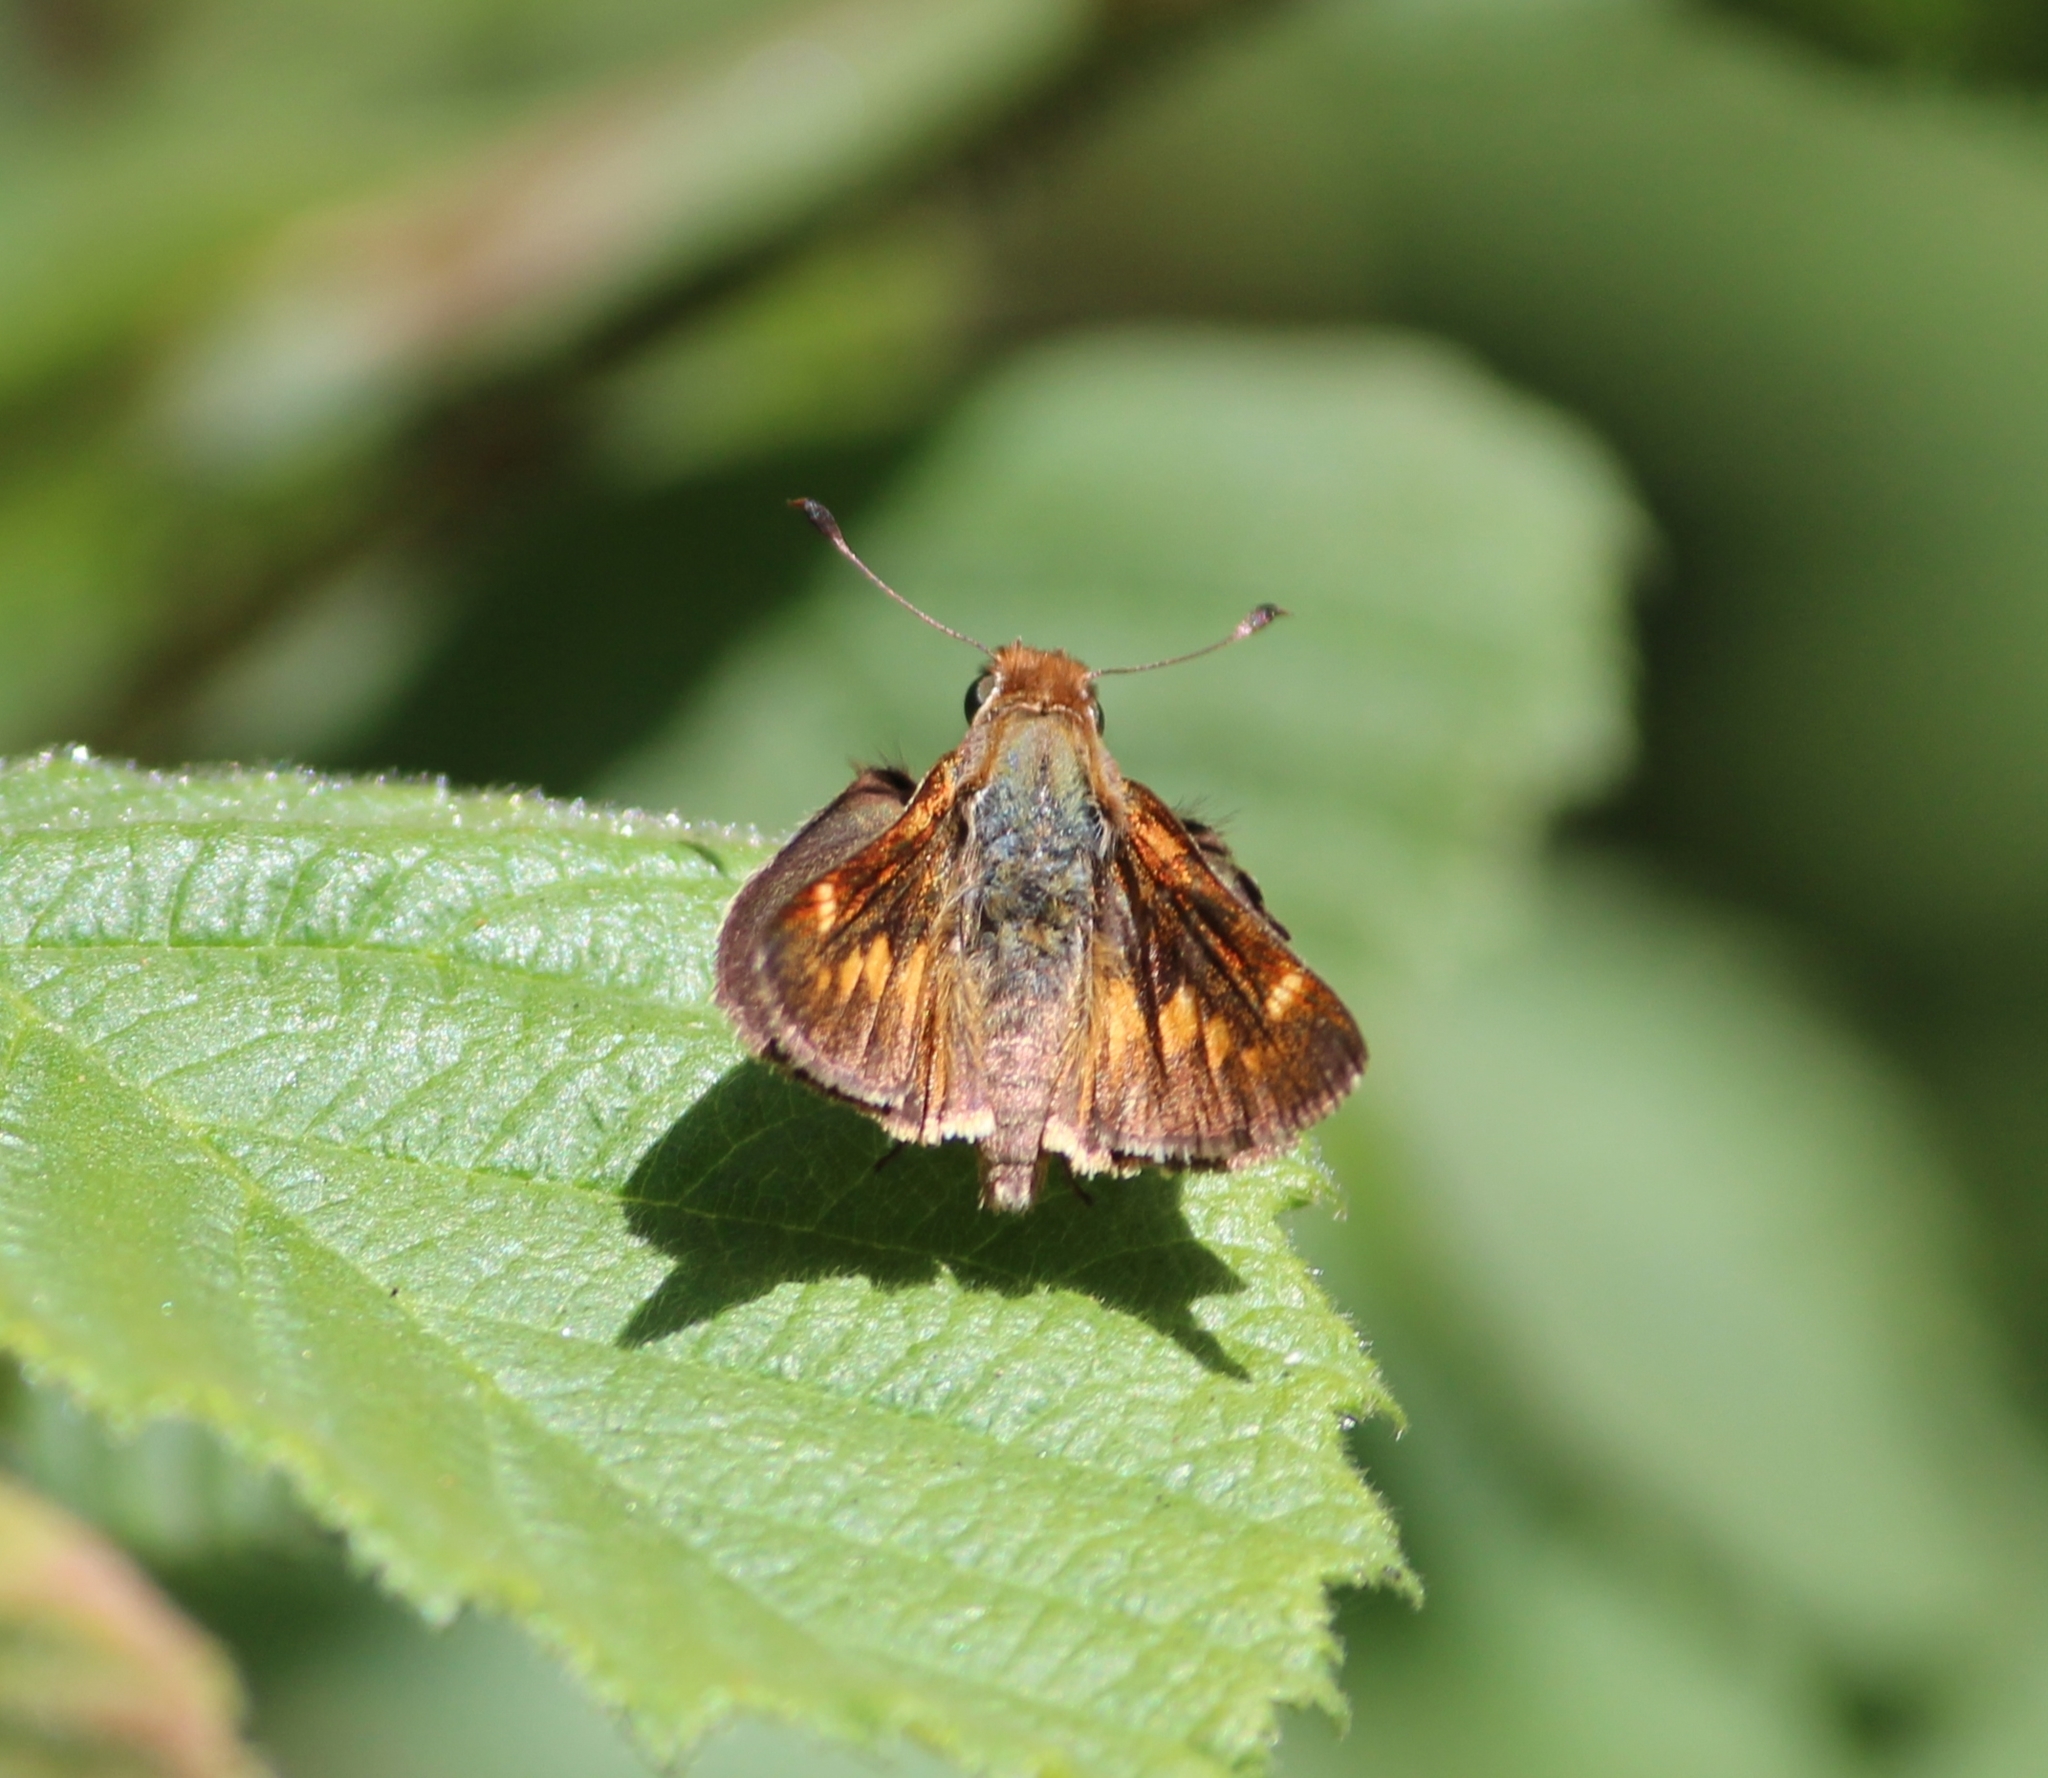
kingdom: Animalia
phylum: Arthropoda
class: Insecta
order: Lepidoptera
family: Hesperiidae
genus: Lon
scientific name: Lon melane
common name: Umber skipper
